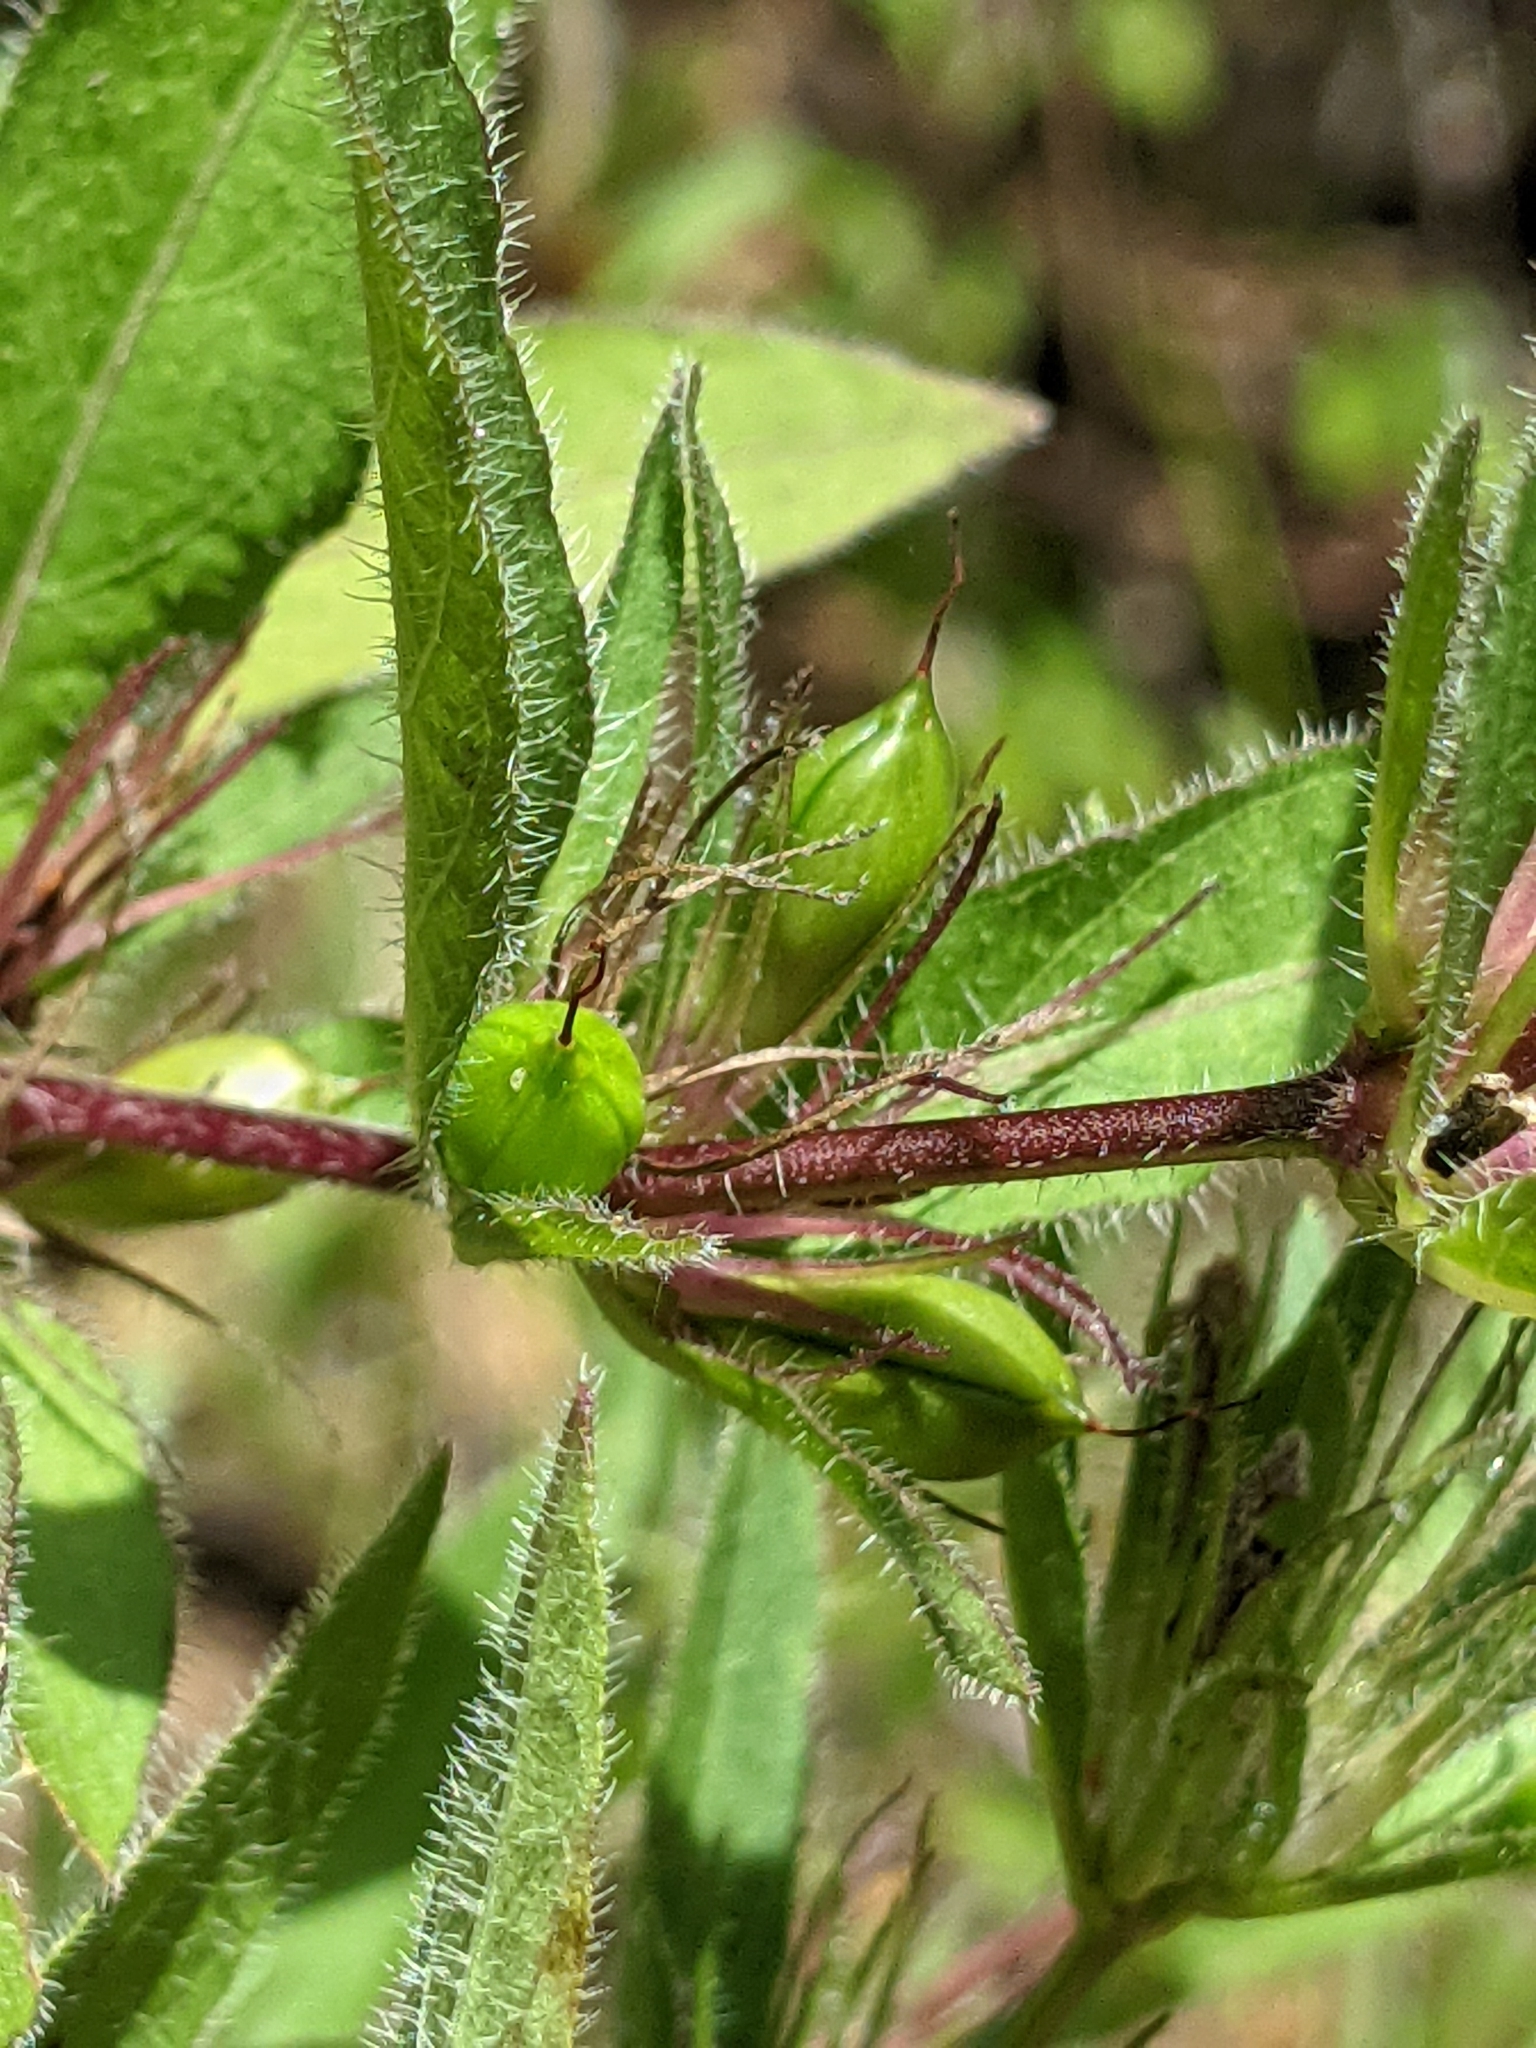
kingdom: Plantae
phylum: Tracheophyta
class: Magnoliopsida
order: Lamiales
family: Acanthaceae
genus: Ruellia
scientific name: Ruellia humilis
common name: Fringe-leaf ruellia
